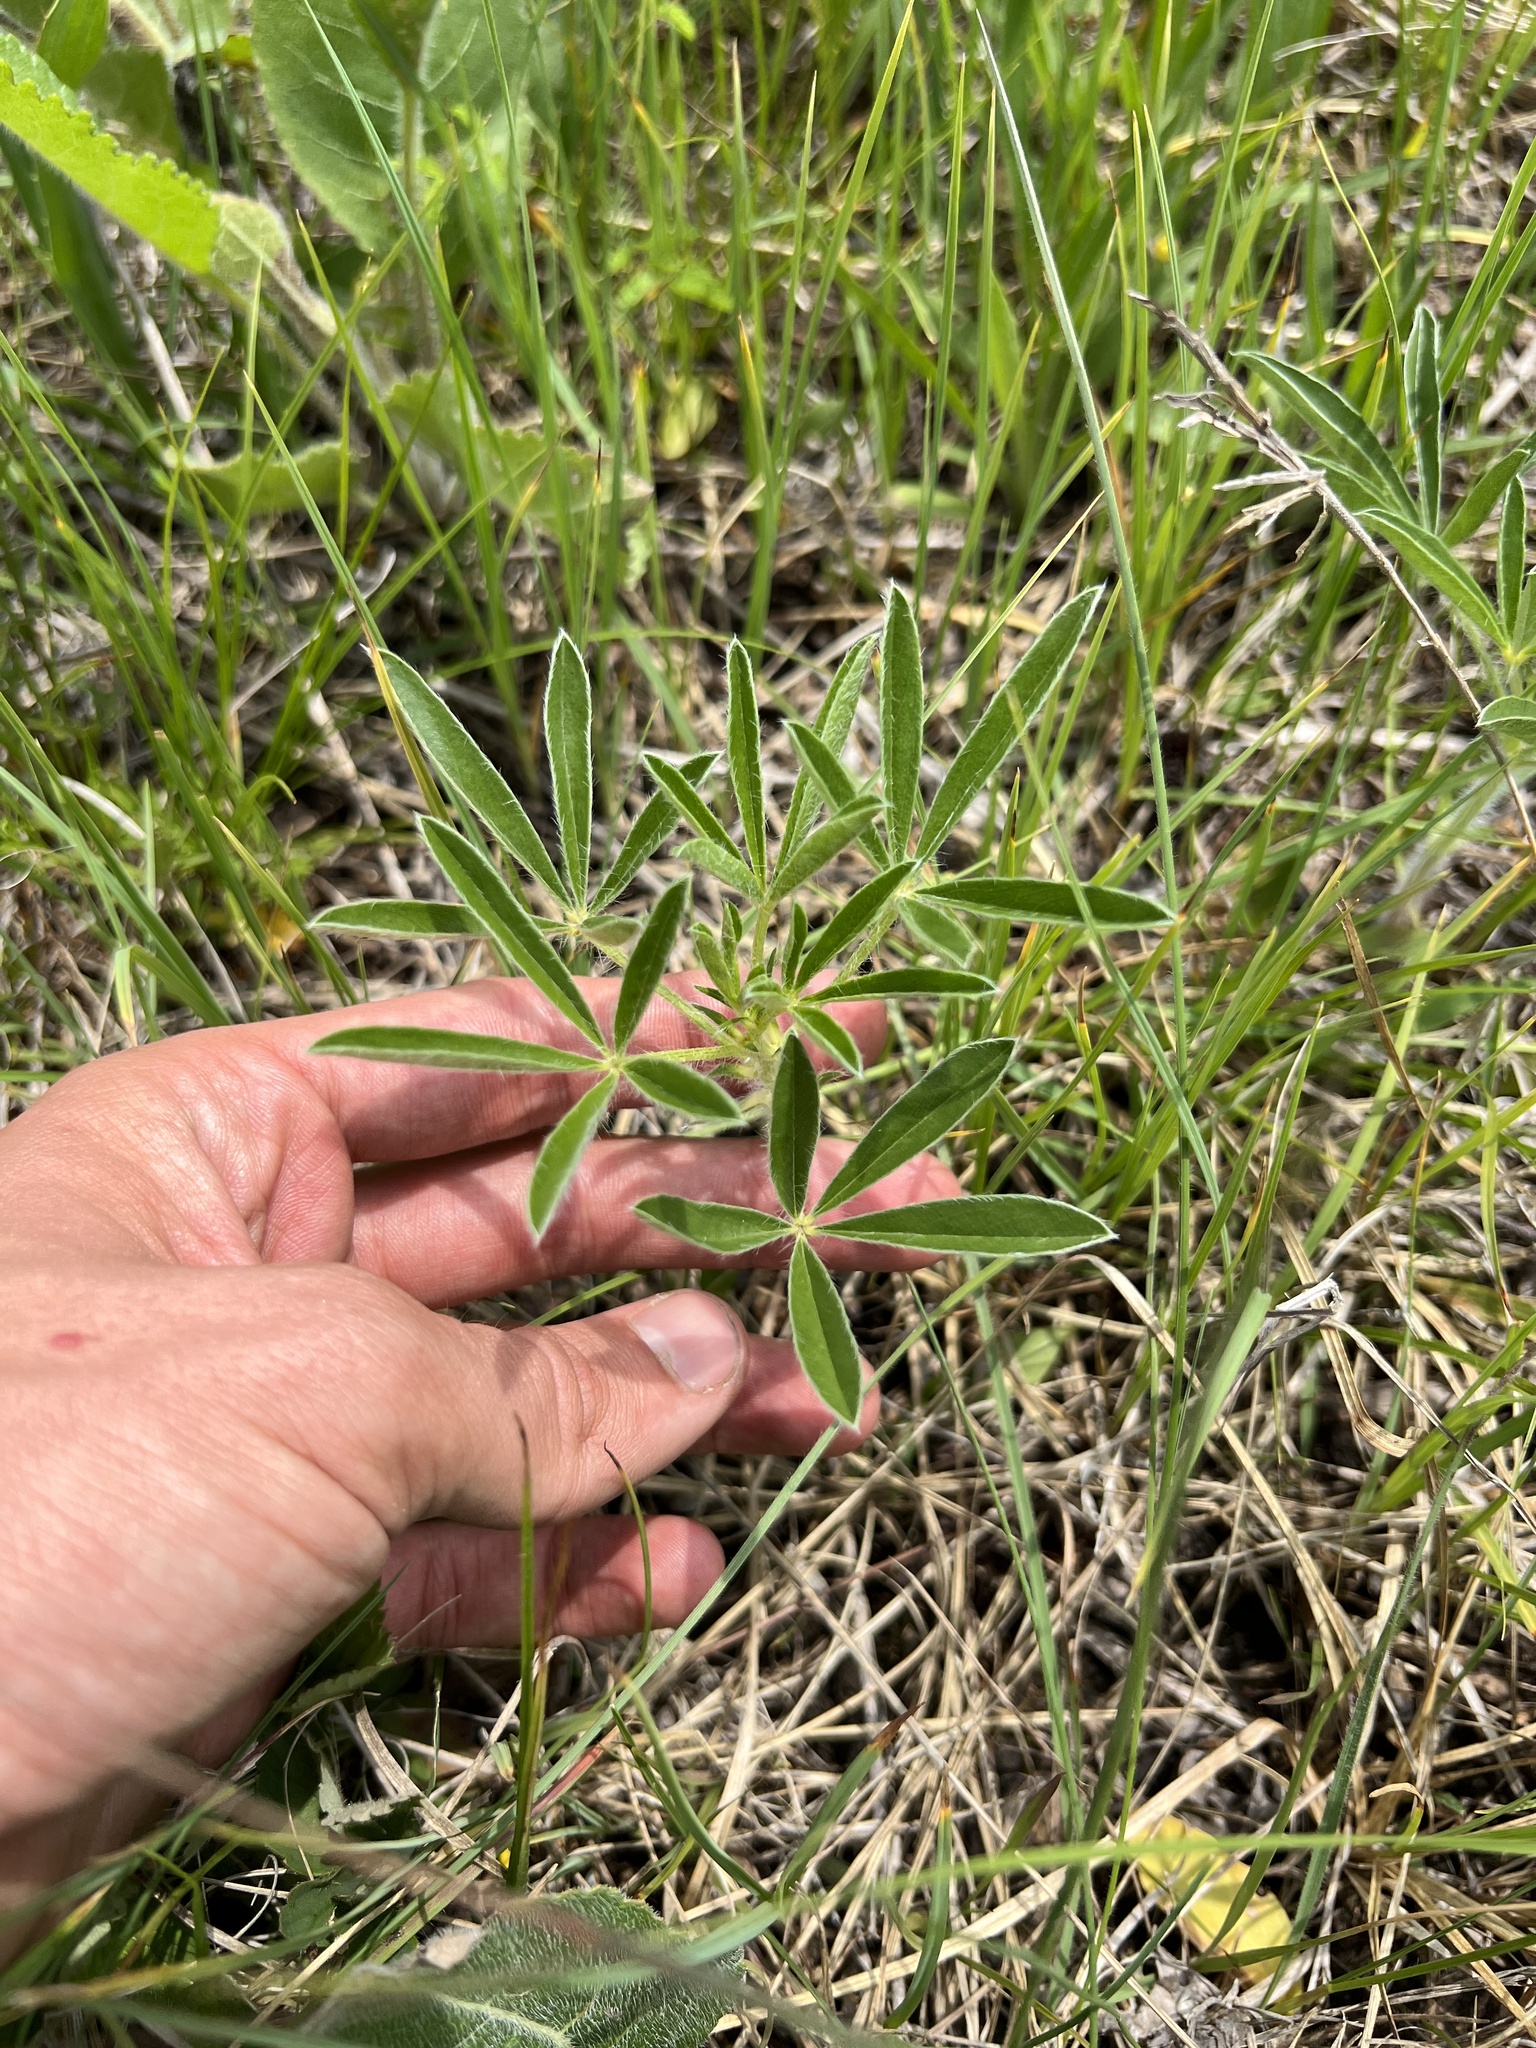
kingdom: Plantae
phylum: Tracheophyta
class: Magnoliopsida
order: Fabales
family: Fabaceae
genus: Pediomelum
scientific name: Pediomelum esculentum
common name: Indian-turnip
